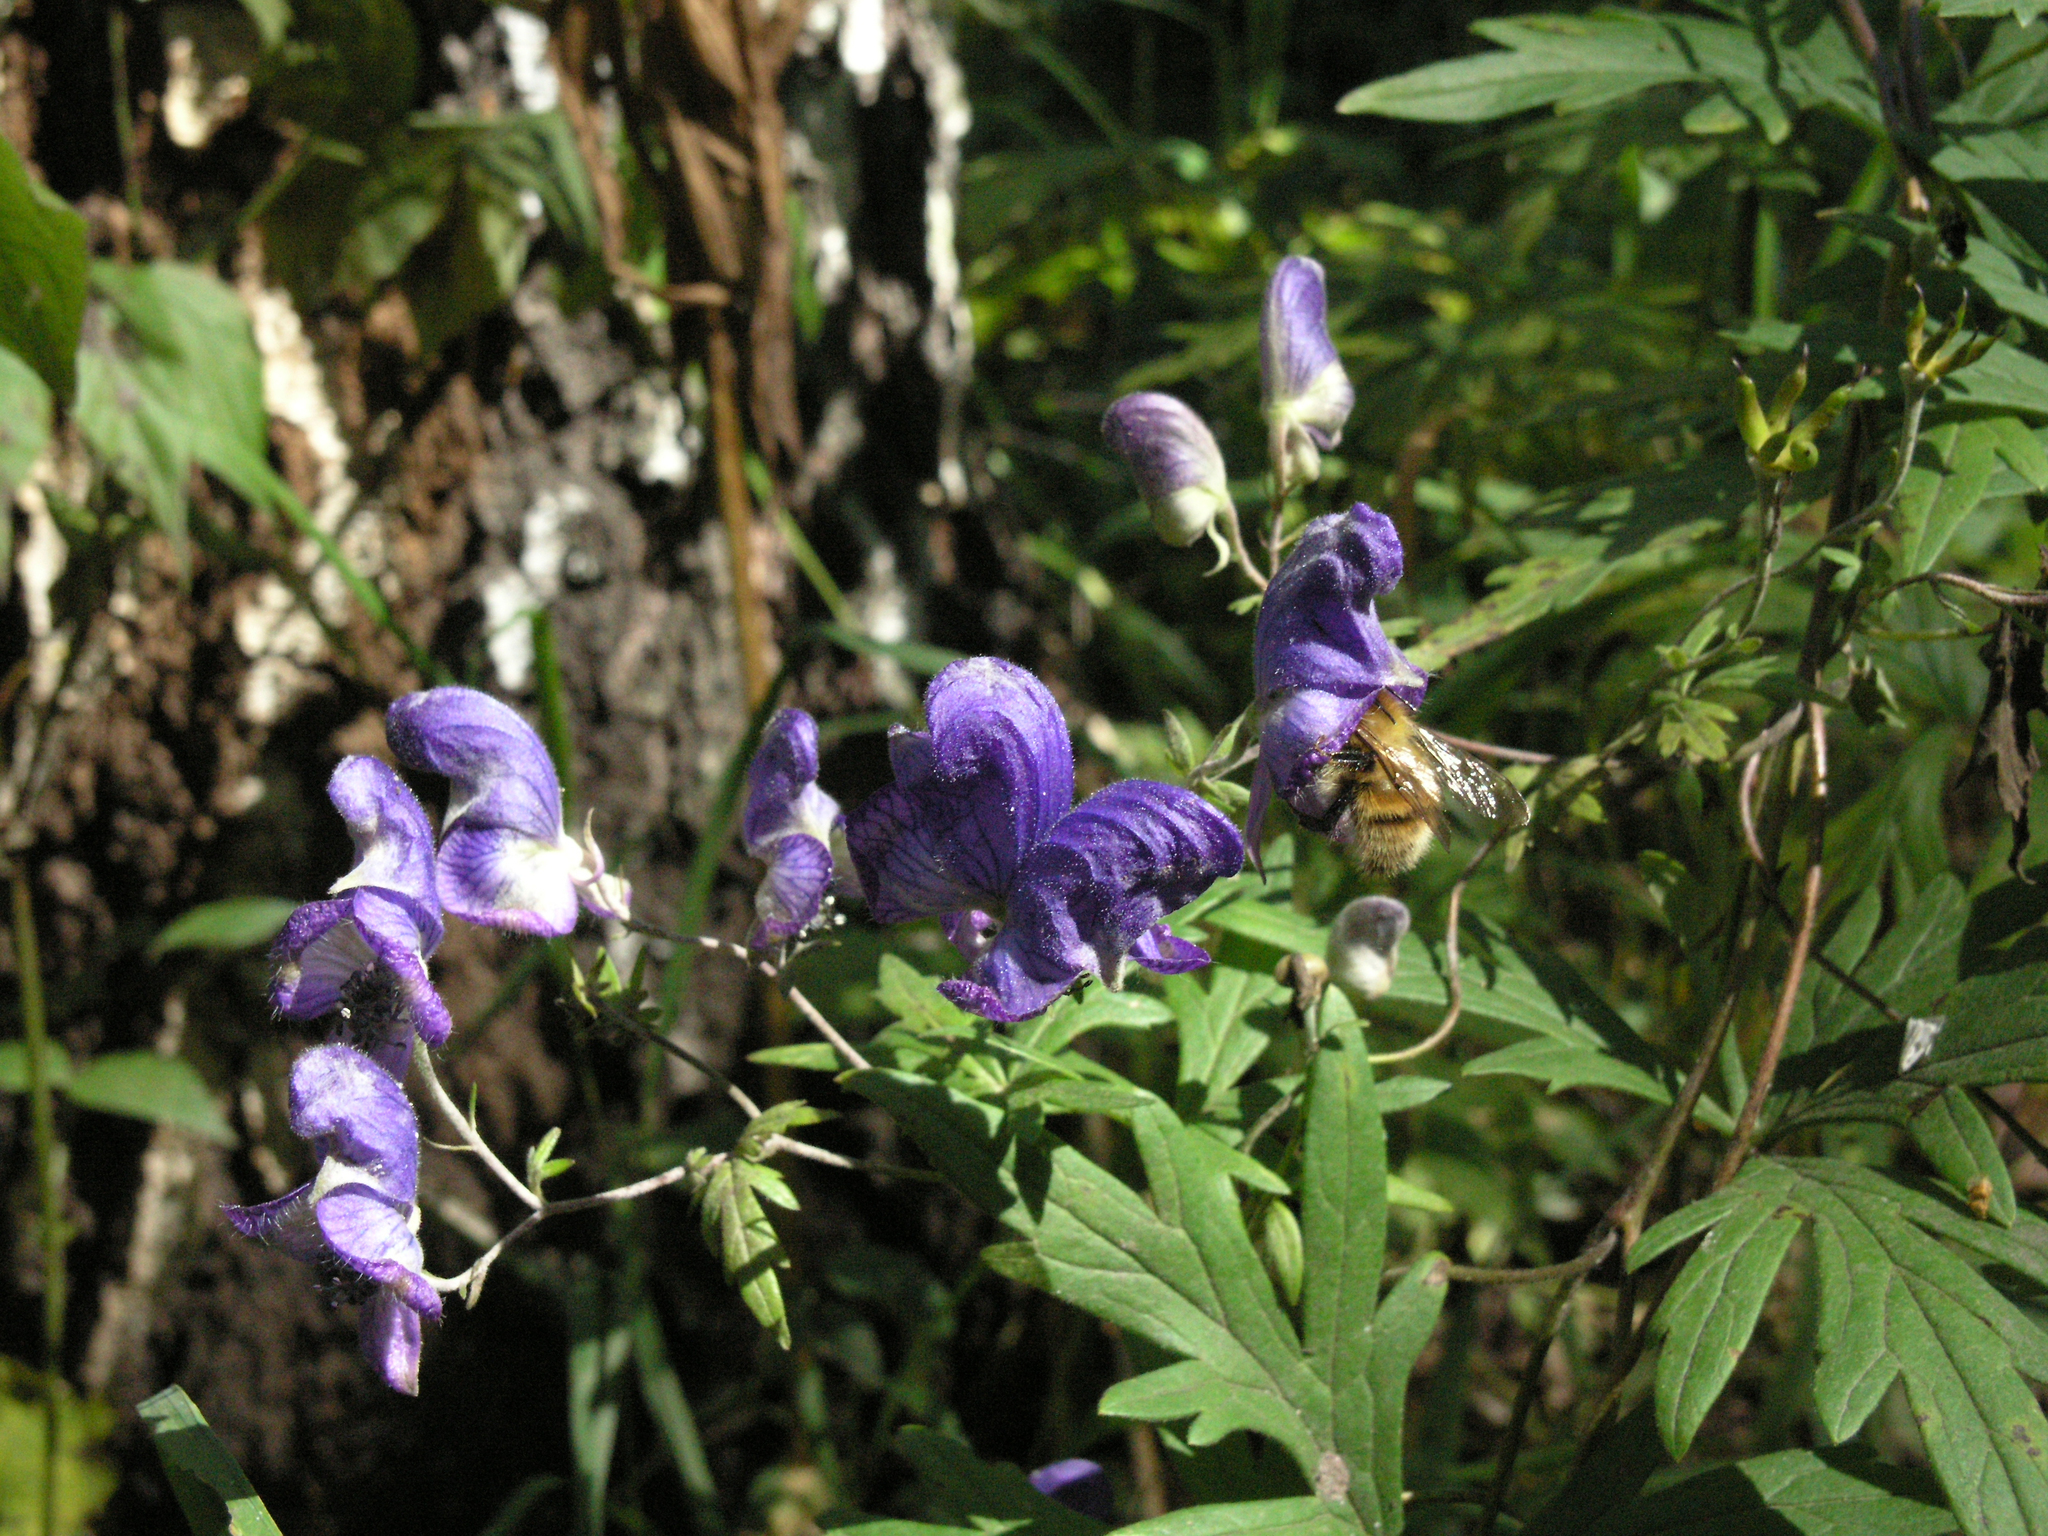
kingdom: Plantae
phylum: Tracheophyta
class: Magnoliopsida
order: Ranunculales
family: Ranunculaceae
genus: Aconitum
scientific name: Aconitum volubile
